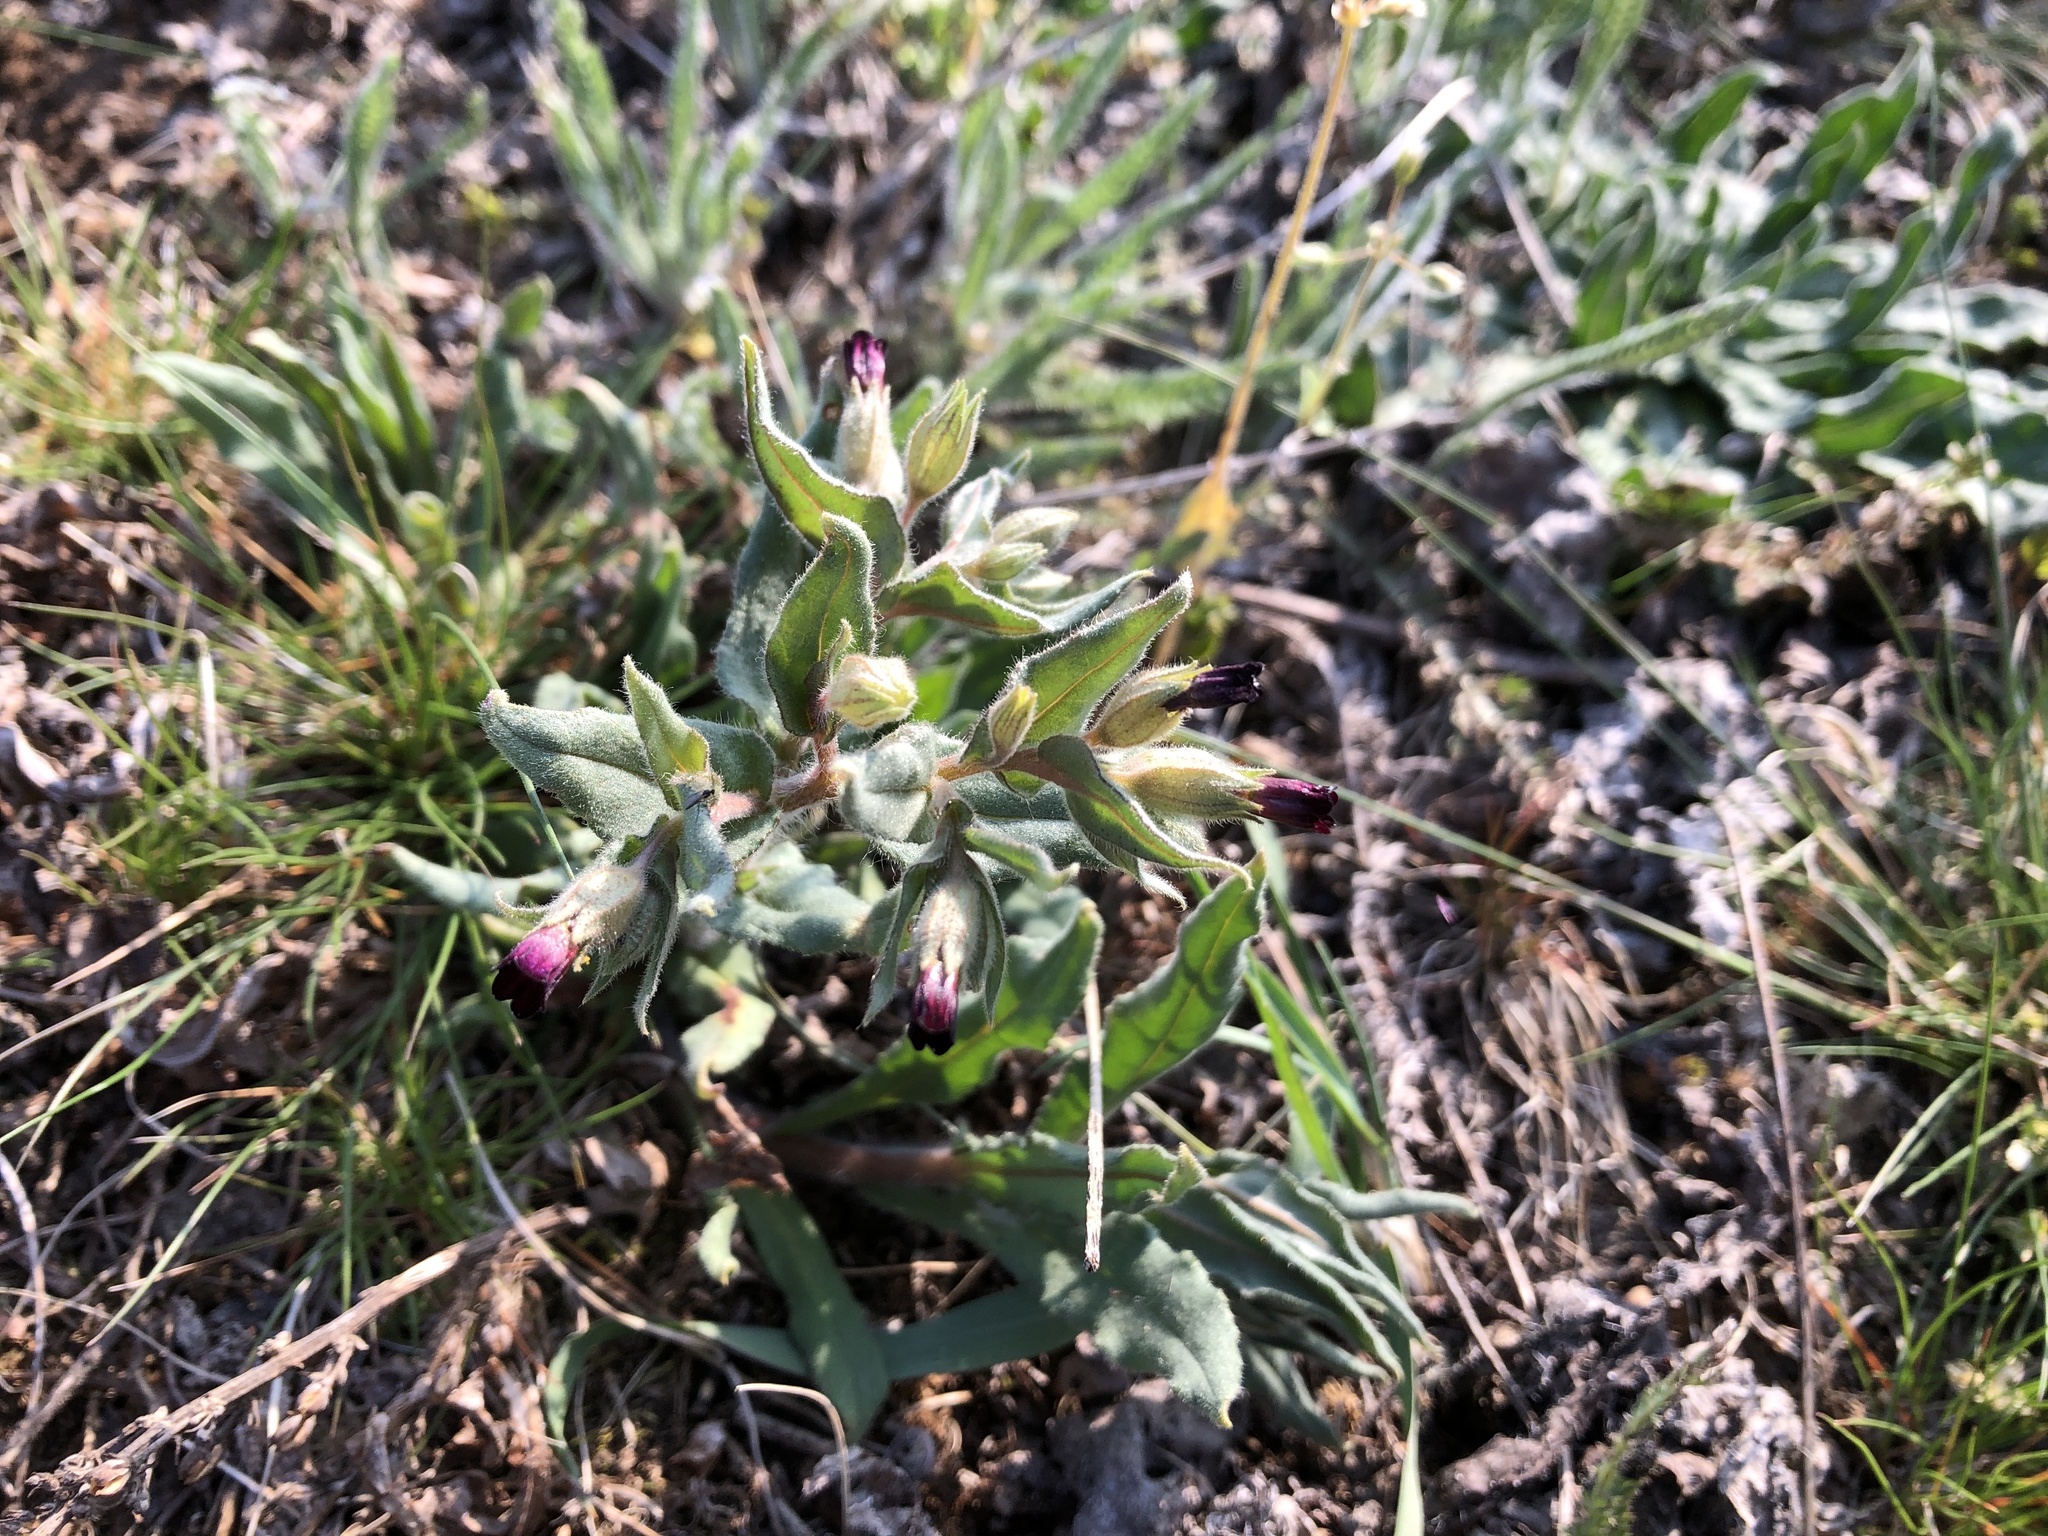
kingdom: Plantae
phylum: Tracheophyta
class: Magnoliopsida
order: Boraginales
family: Boraginaceae
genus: Nonea
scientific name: Nonea pulla
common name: Brown nonea
